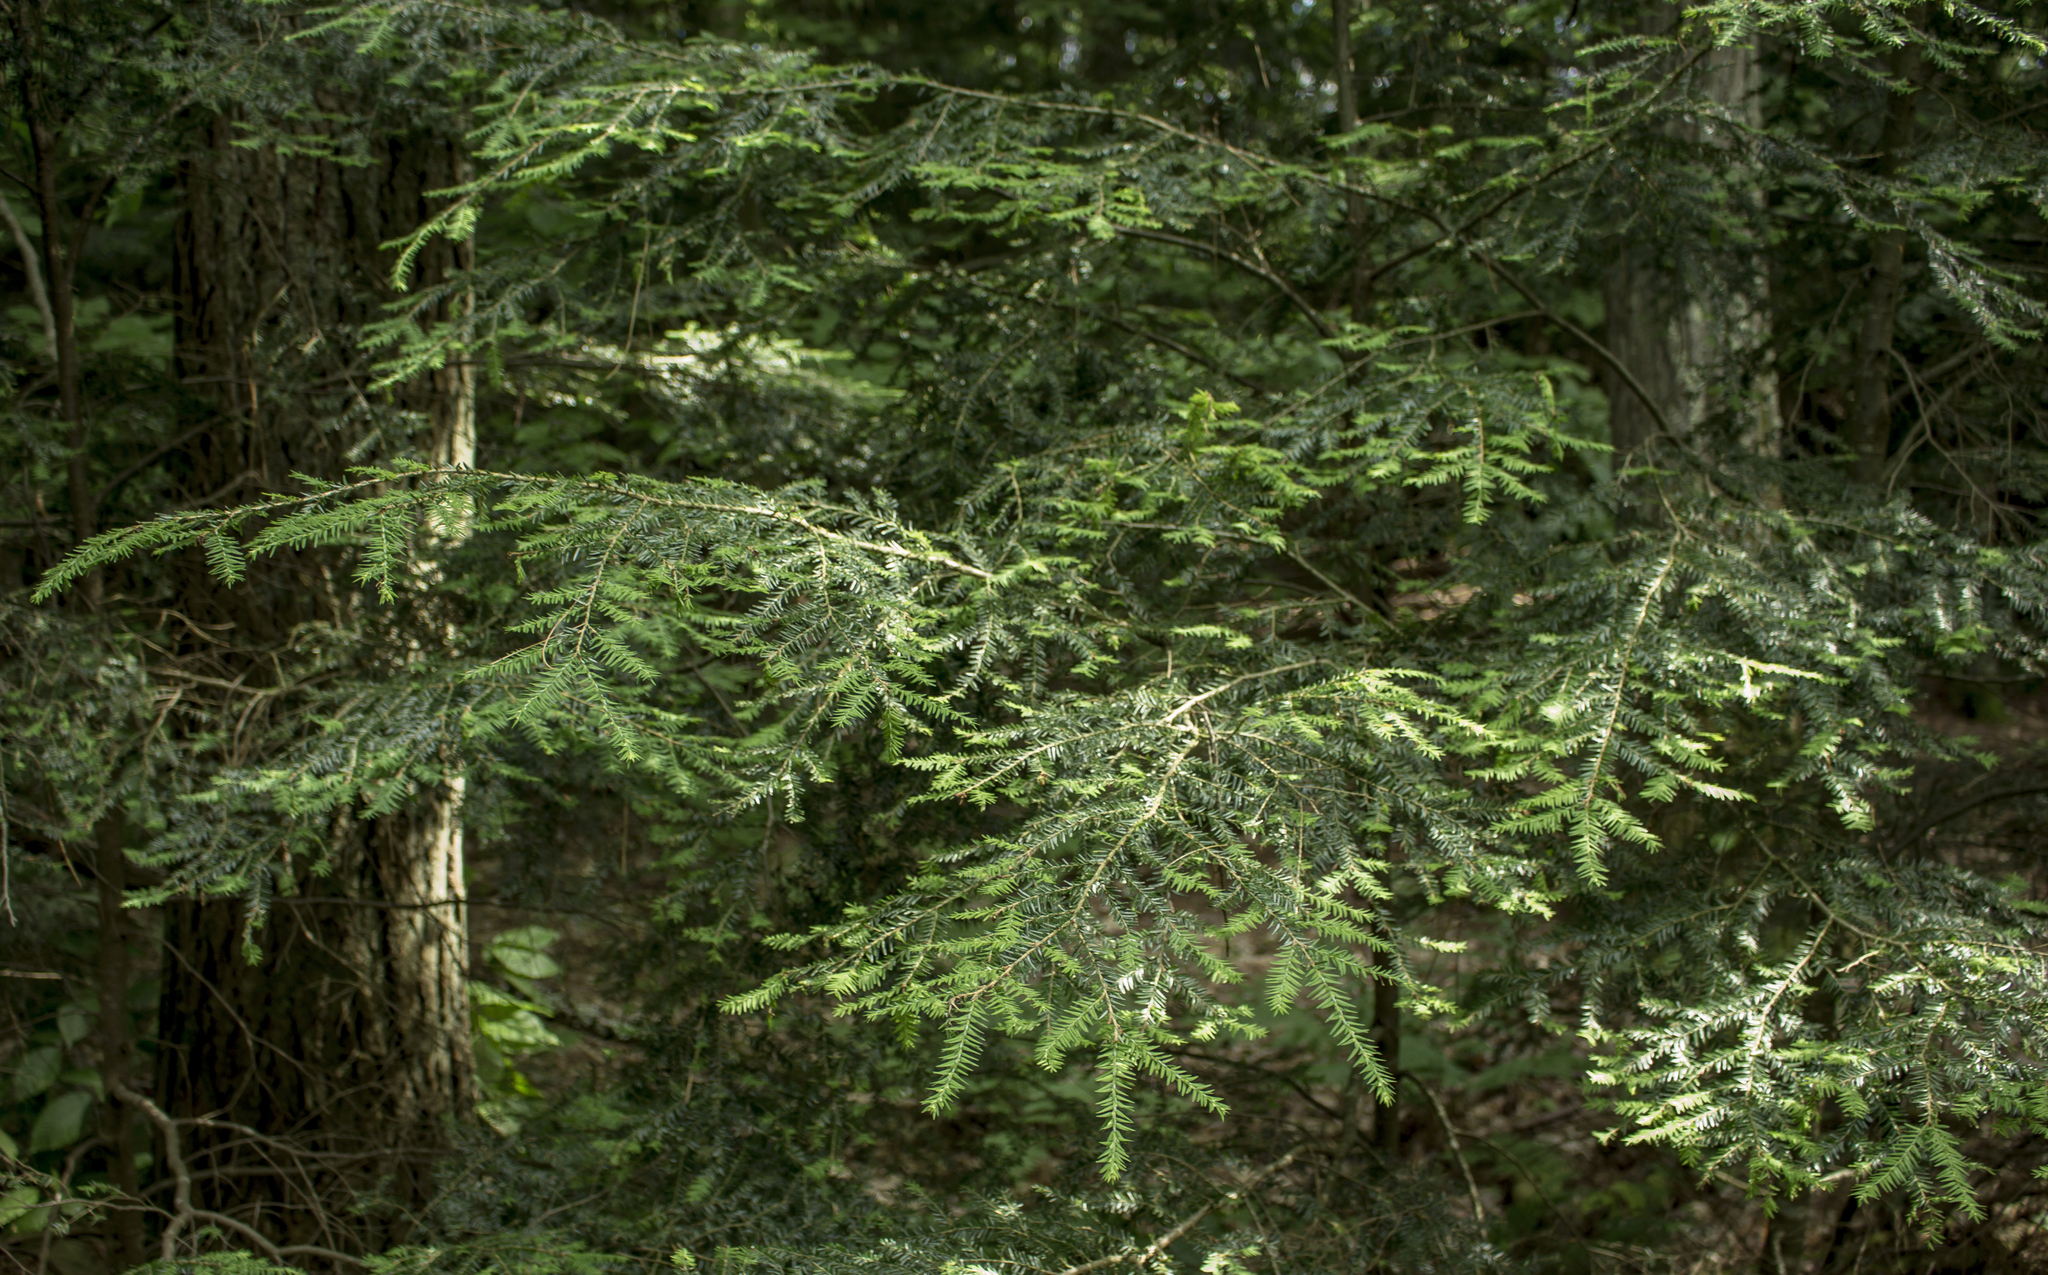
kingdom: Plantae
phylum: Tracheophyta
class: Pinopsida
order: Pinales
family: Pinaceae
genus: Tsuga
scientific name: Tsuga canadensis
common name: Eastern hemlock
